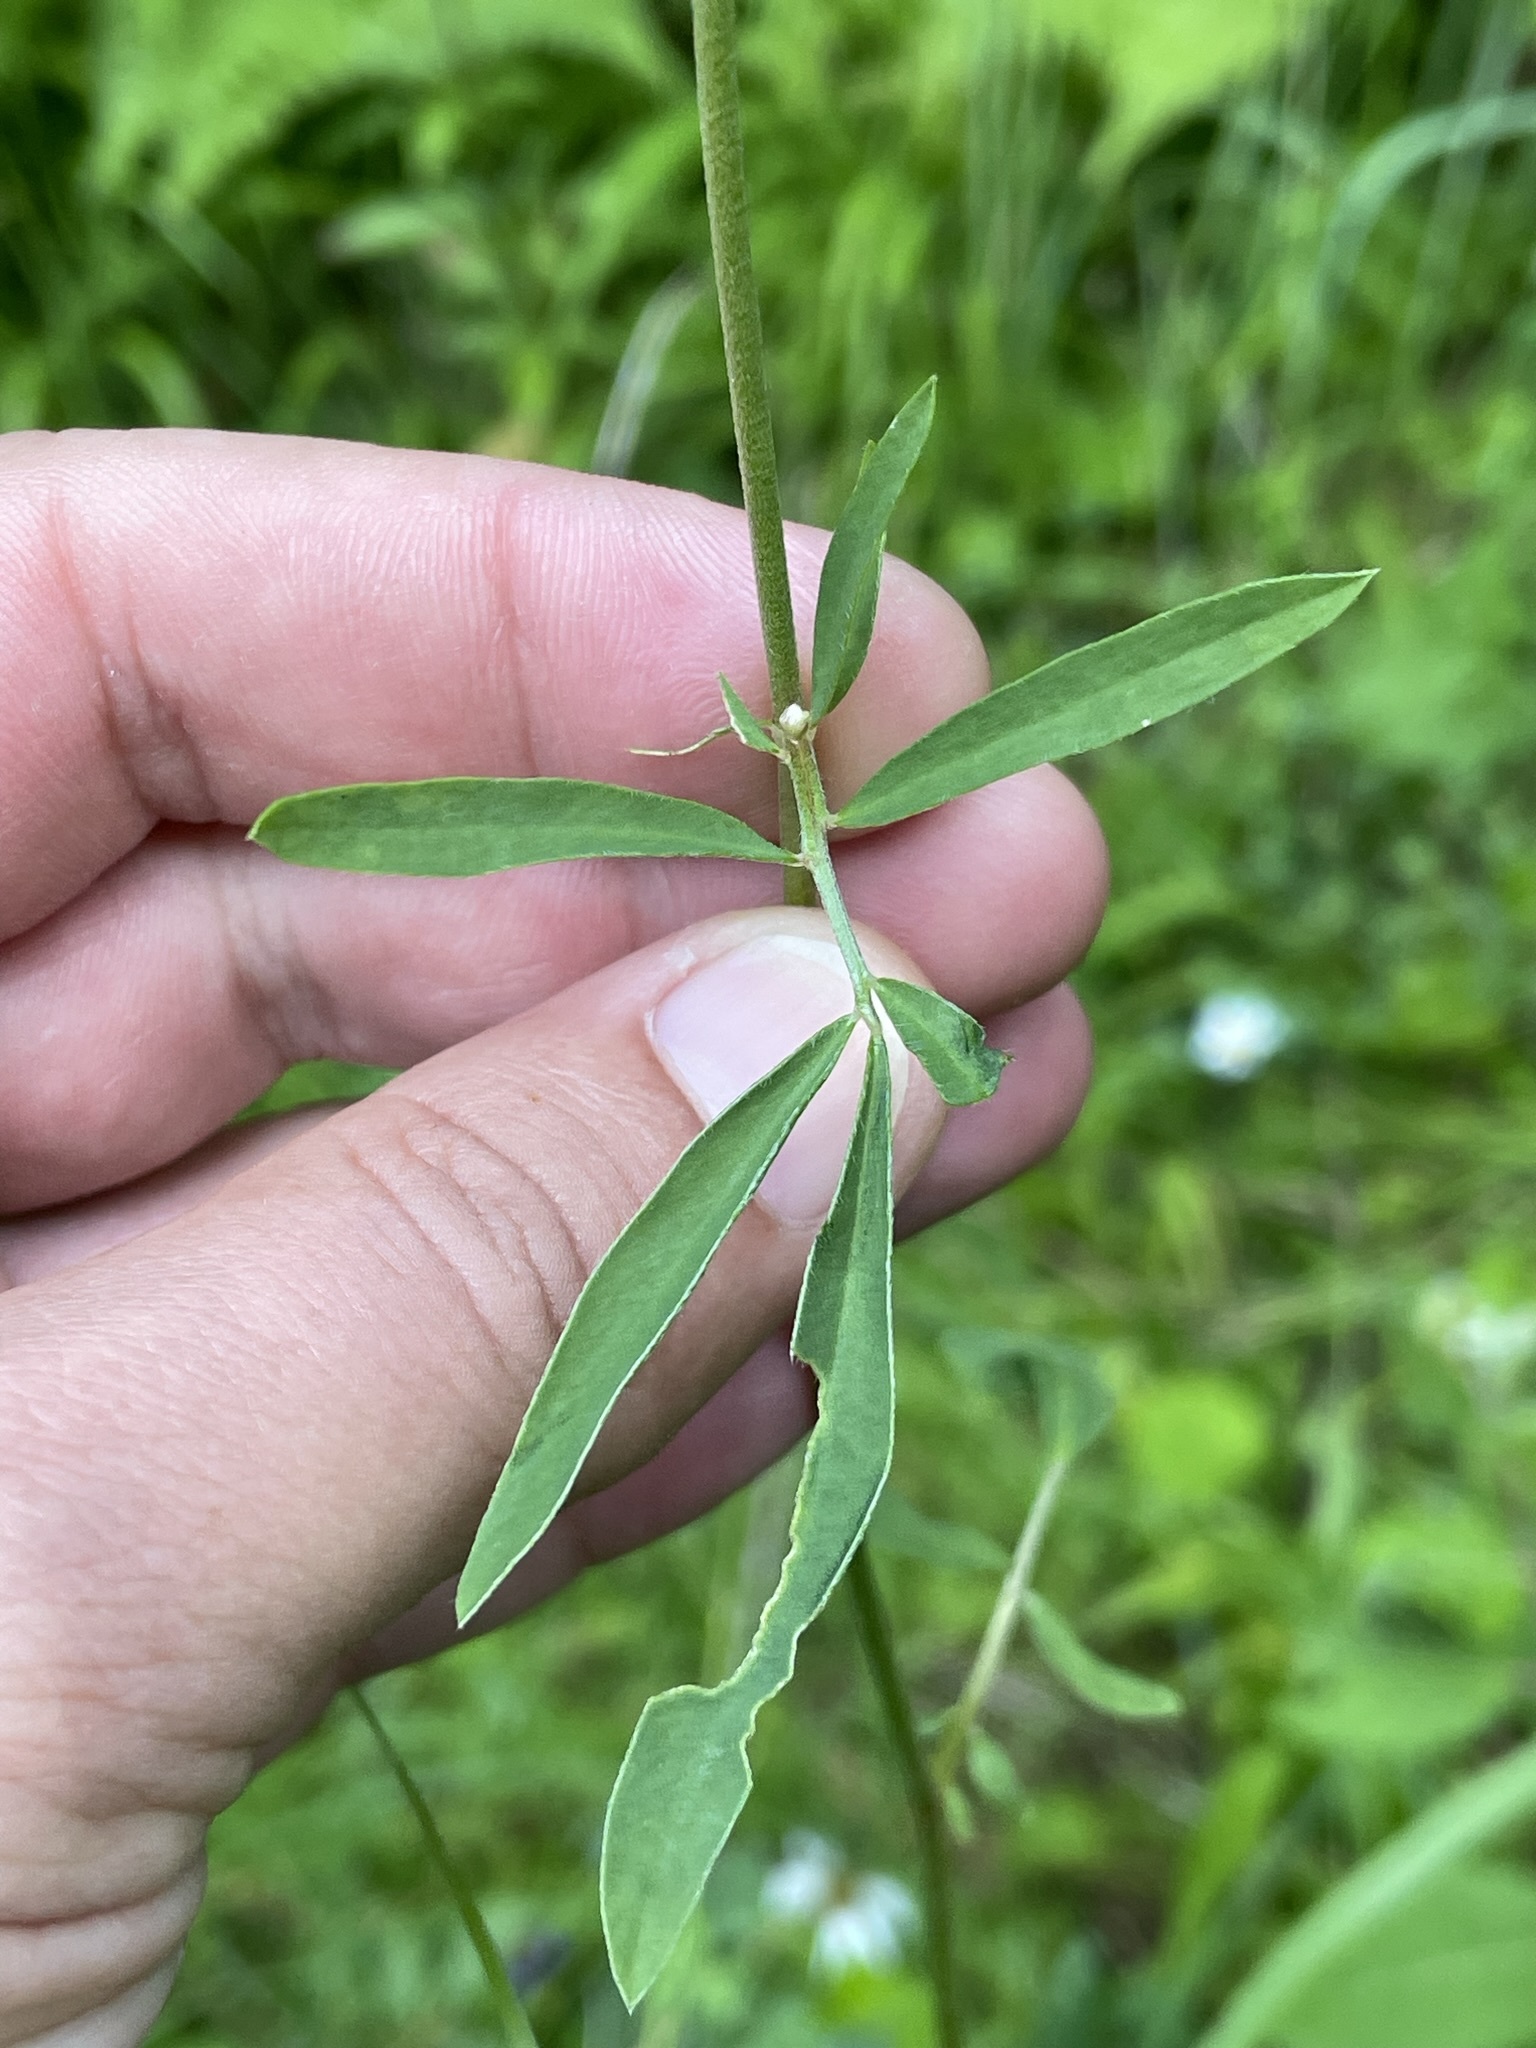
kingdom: Plantae
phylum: Tracheophyta
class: Magnoliopsida
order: Fabales
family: Fabaceae
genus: Anthyllis
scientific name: Anthyllis vulneraria
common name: Kidney vetch
